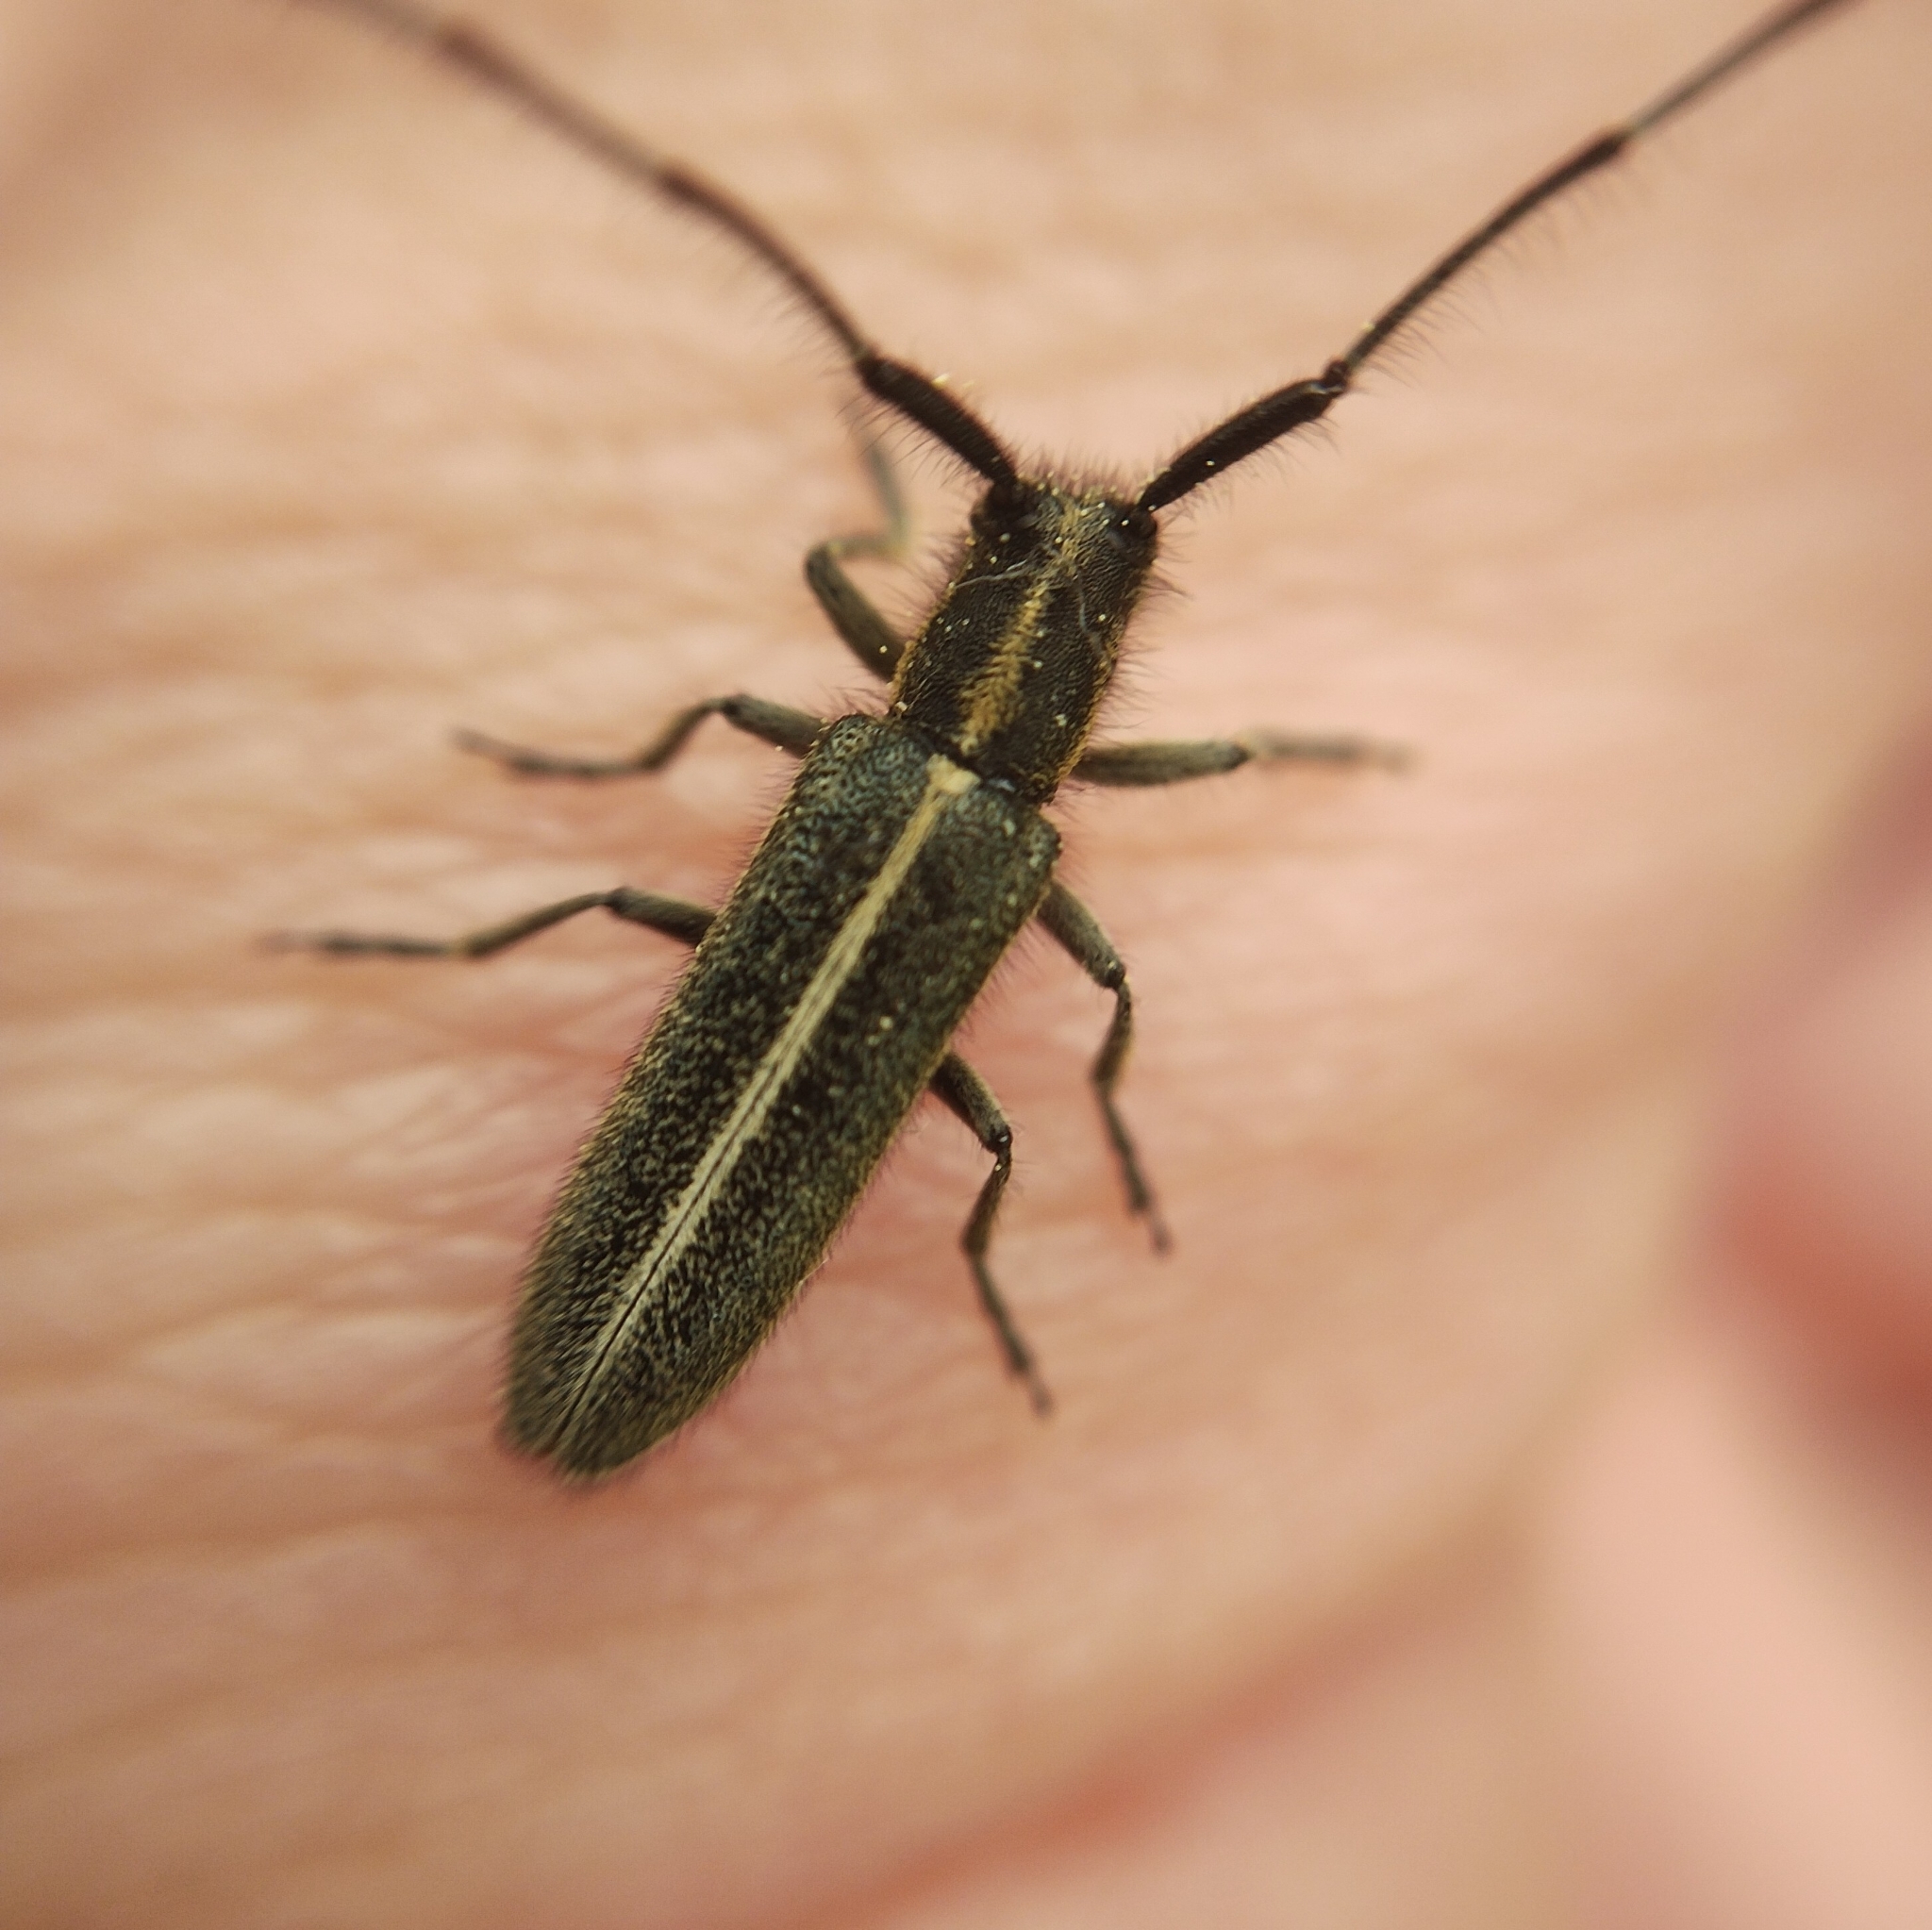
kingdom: Animalia
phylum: Arthropoda
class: Insecta
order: Coleoptera
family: Cerambycidae
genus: Agapanthia
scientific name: Agapanthia cardui
